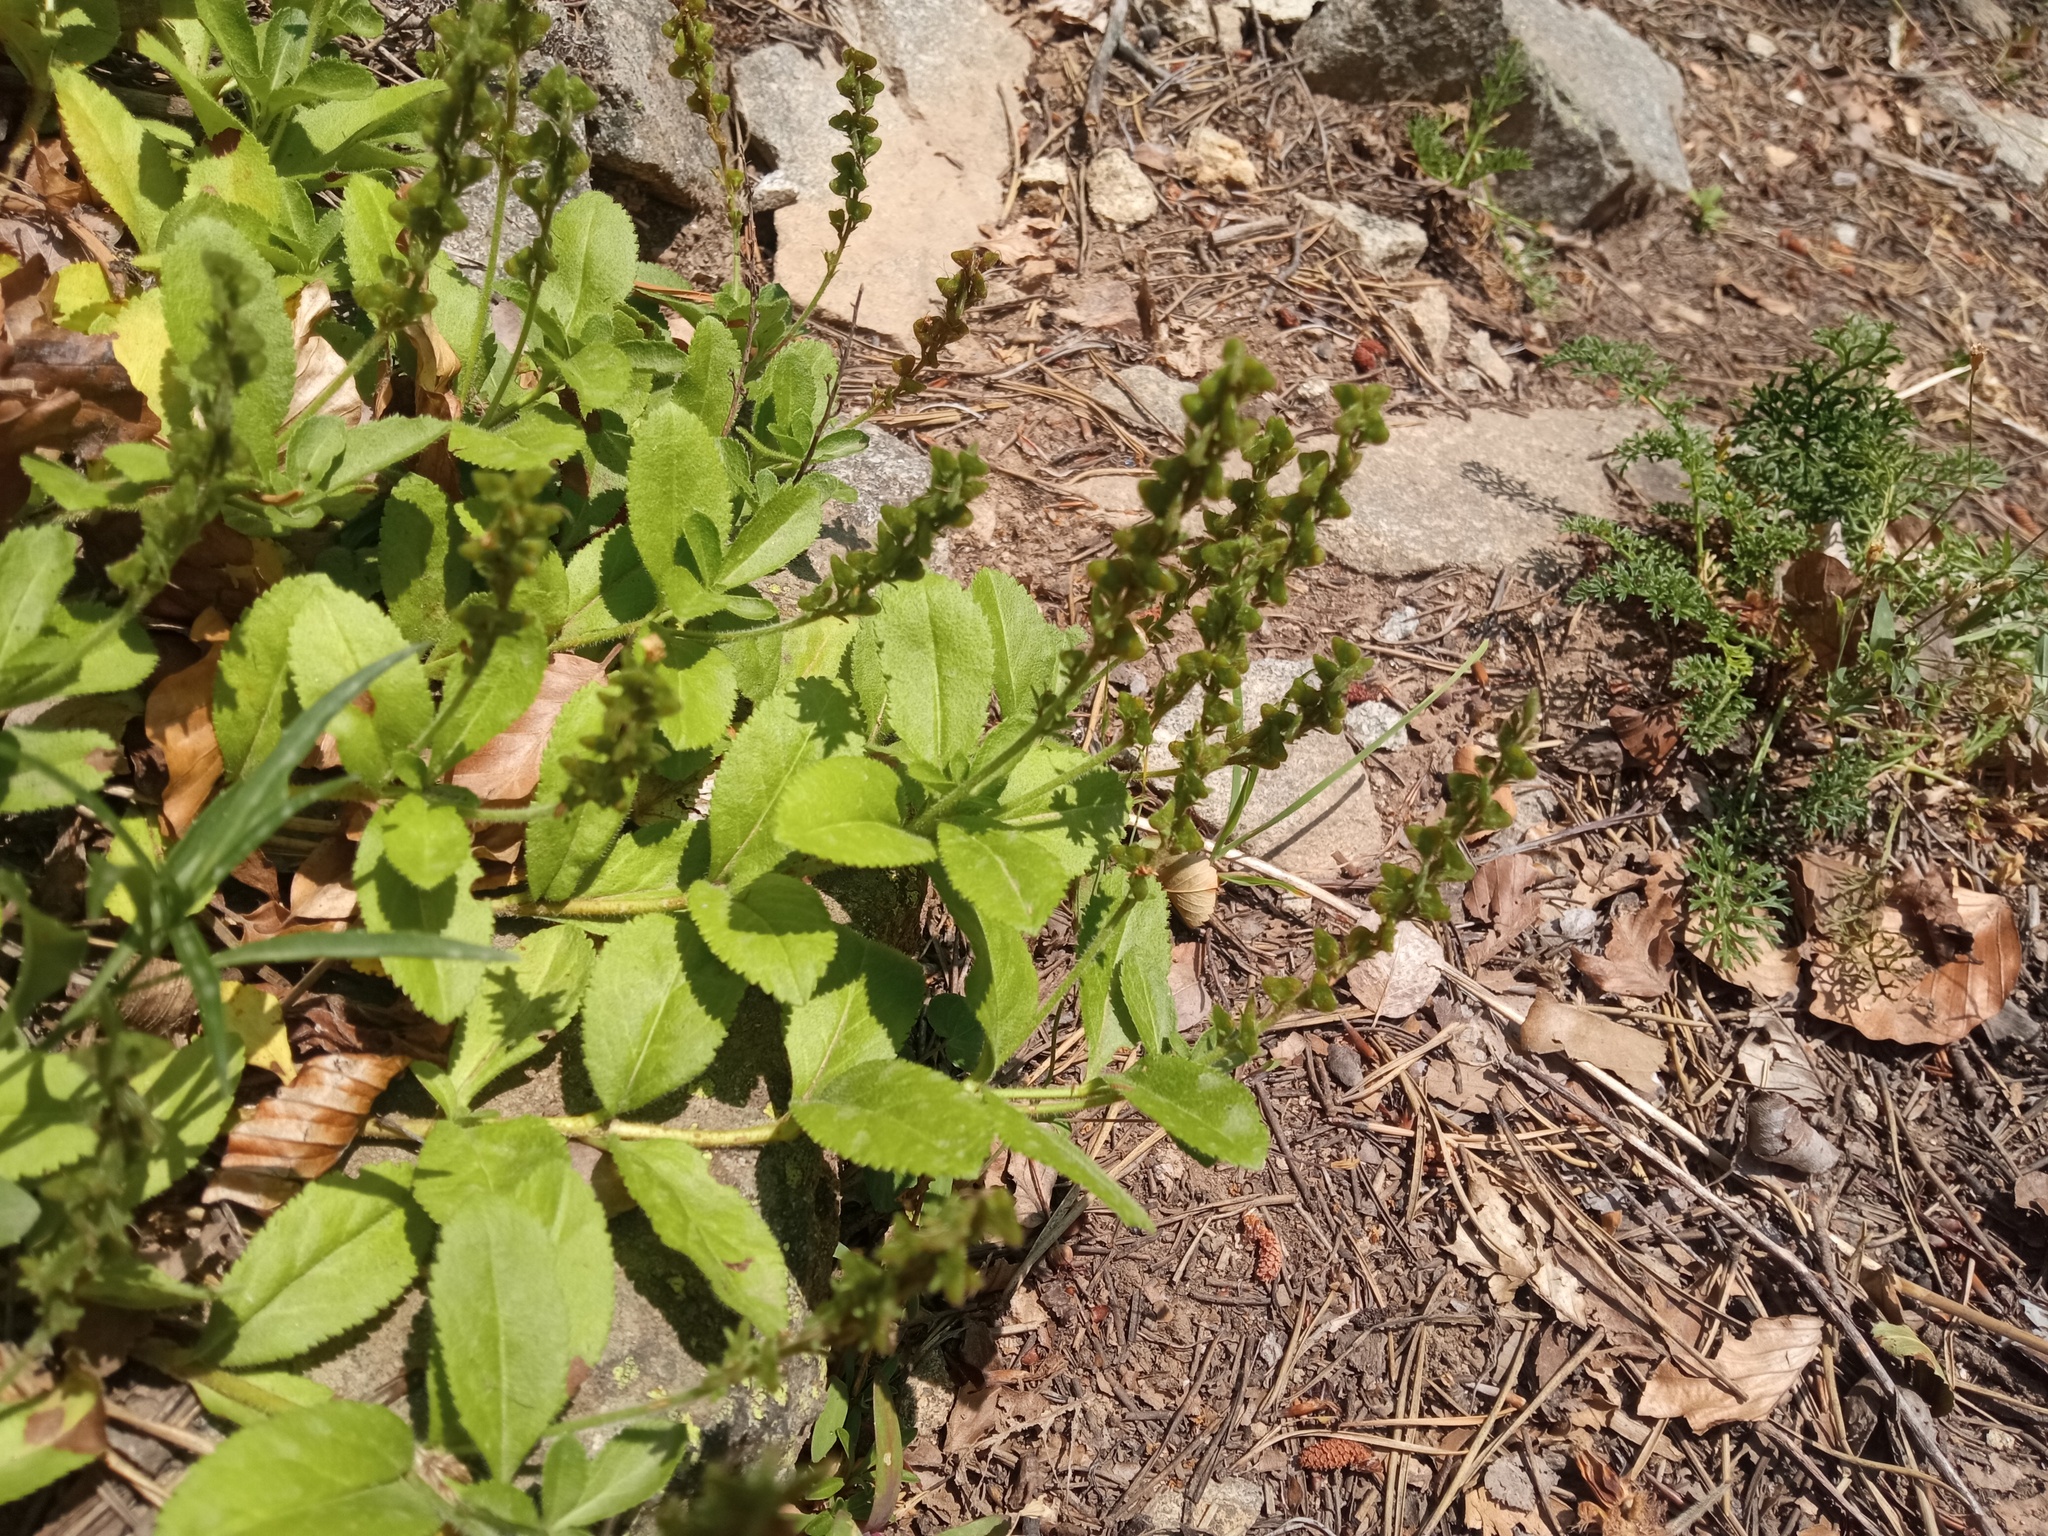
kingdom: Plantae
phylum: Tracheophyta
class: Magnoliopsida
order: Lamiales
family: Plantaginaceae
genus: Veronica
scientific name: Veronica officinalis
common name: Common speedwell
